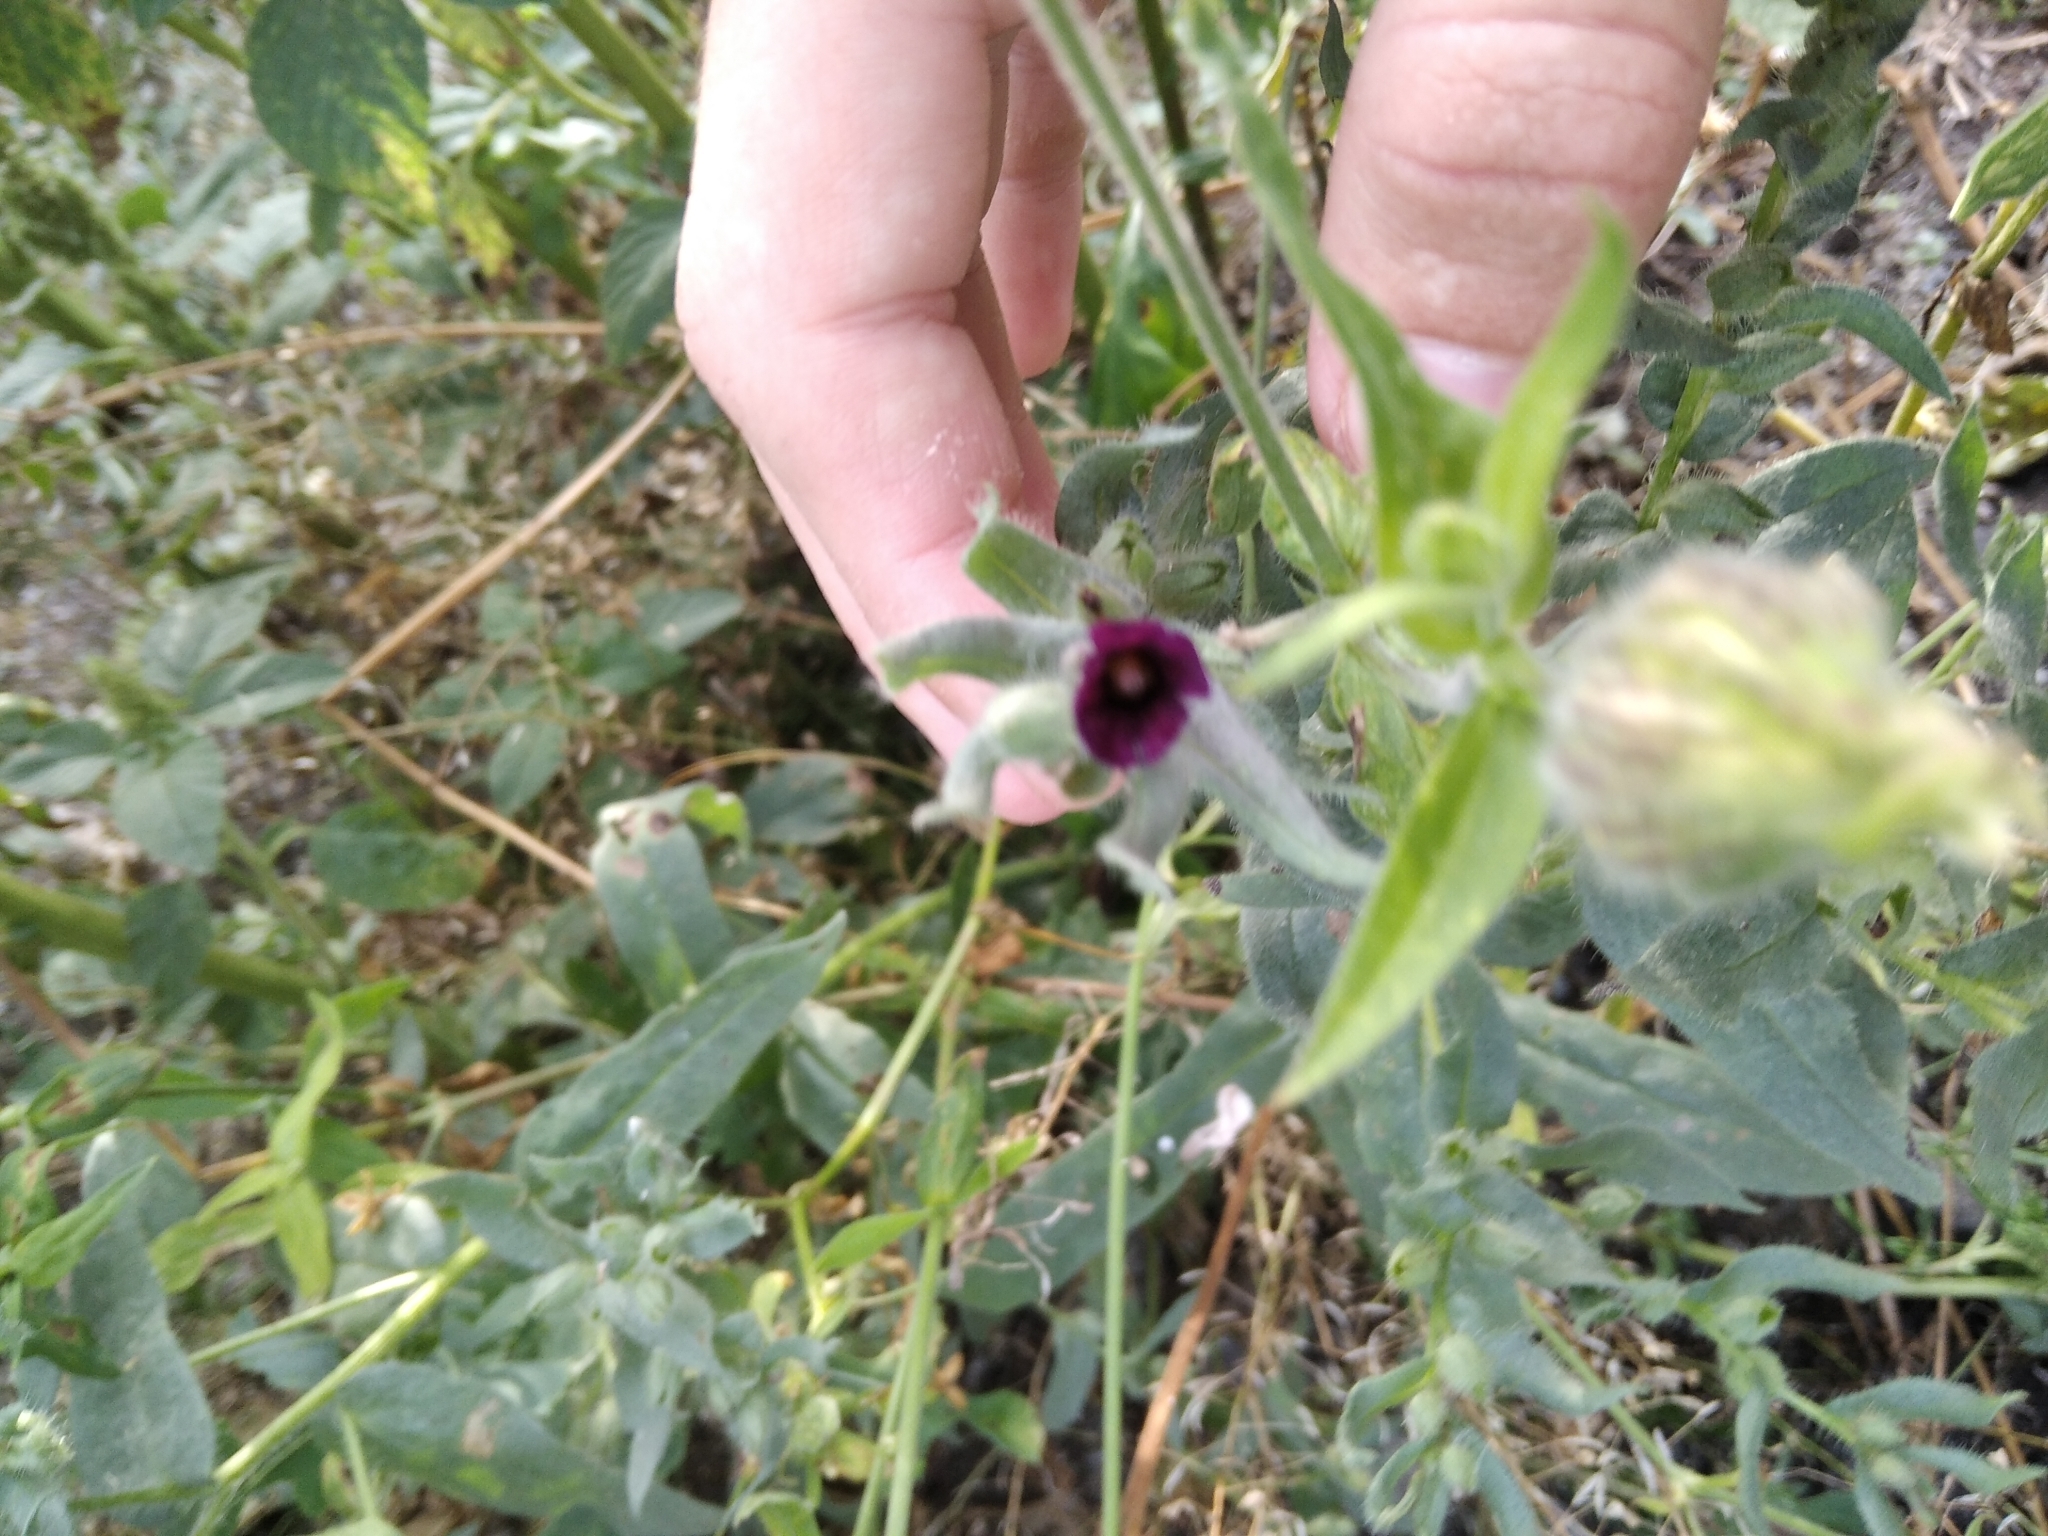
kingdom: Plantae
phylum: Tracheophyta
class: Magnoliopsida
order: Boraginales
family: Boraginaceae
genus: Nonea
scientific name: Nonea pulla
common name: Brown nonea
